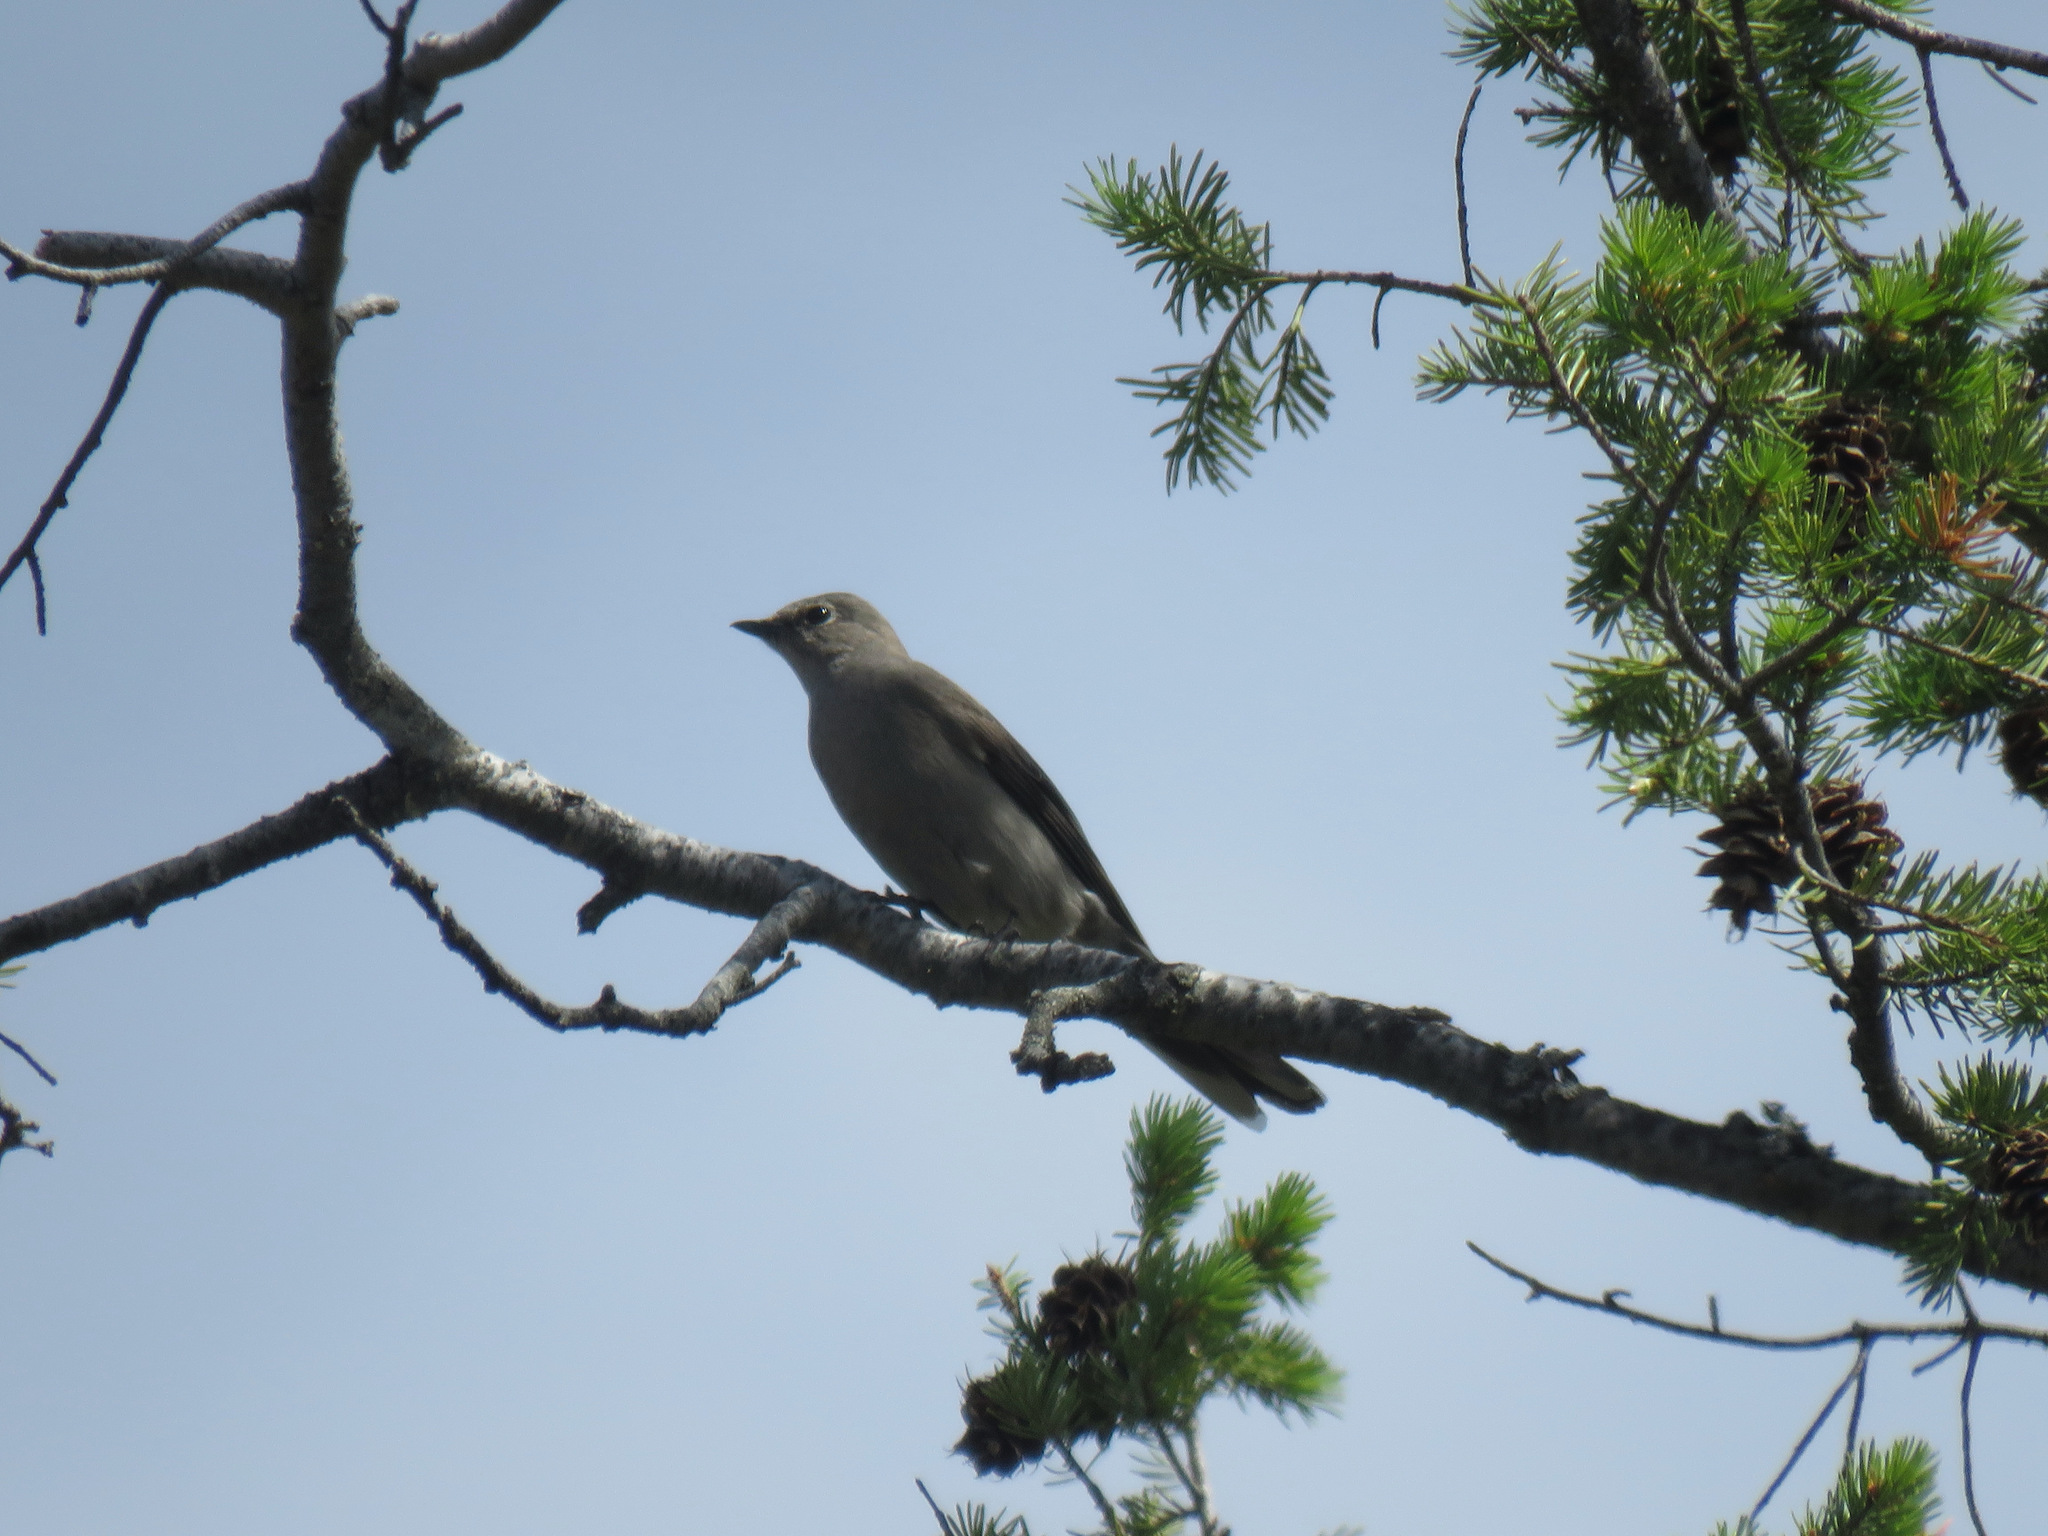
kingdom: Animalia
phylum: Chordata
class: Aves
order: Passeriformes
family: Turdidae
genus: Myadestes
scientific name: Myadestes townsendi
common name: Townsend's solitaire
